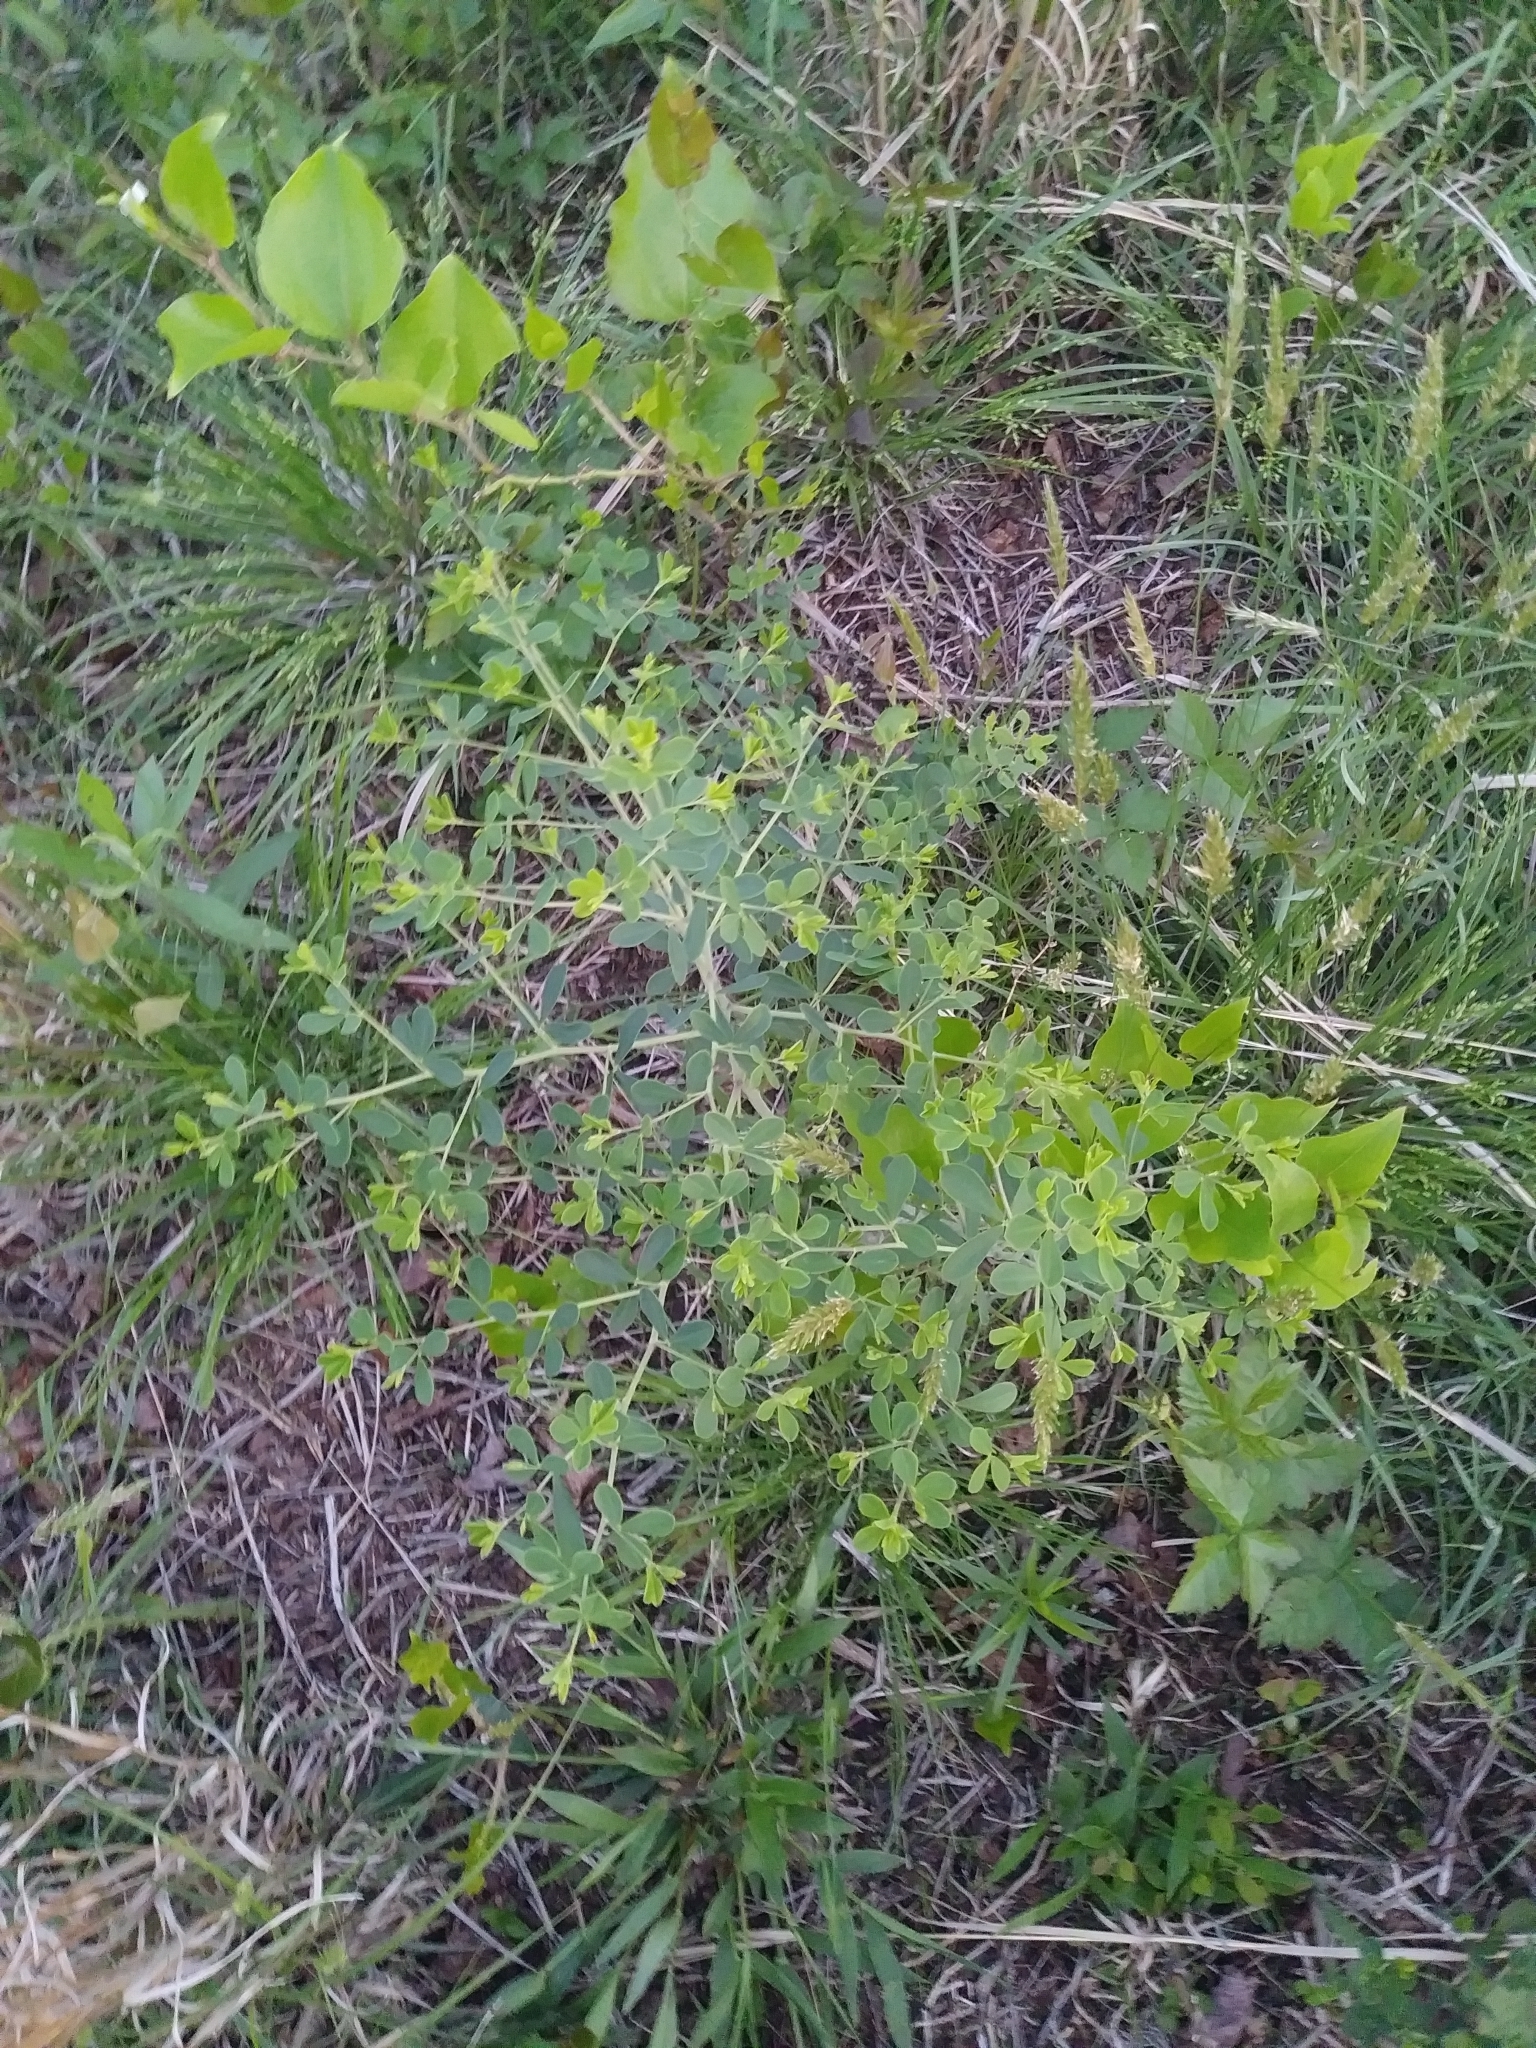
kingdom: Plantae
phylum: Tracheophyta
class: Magnoliopsida
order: Fabales
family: Fabaceae
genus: Baptisia
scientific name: Baptisia tinctoria
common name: Wild indigo
